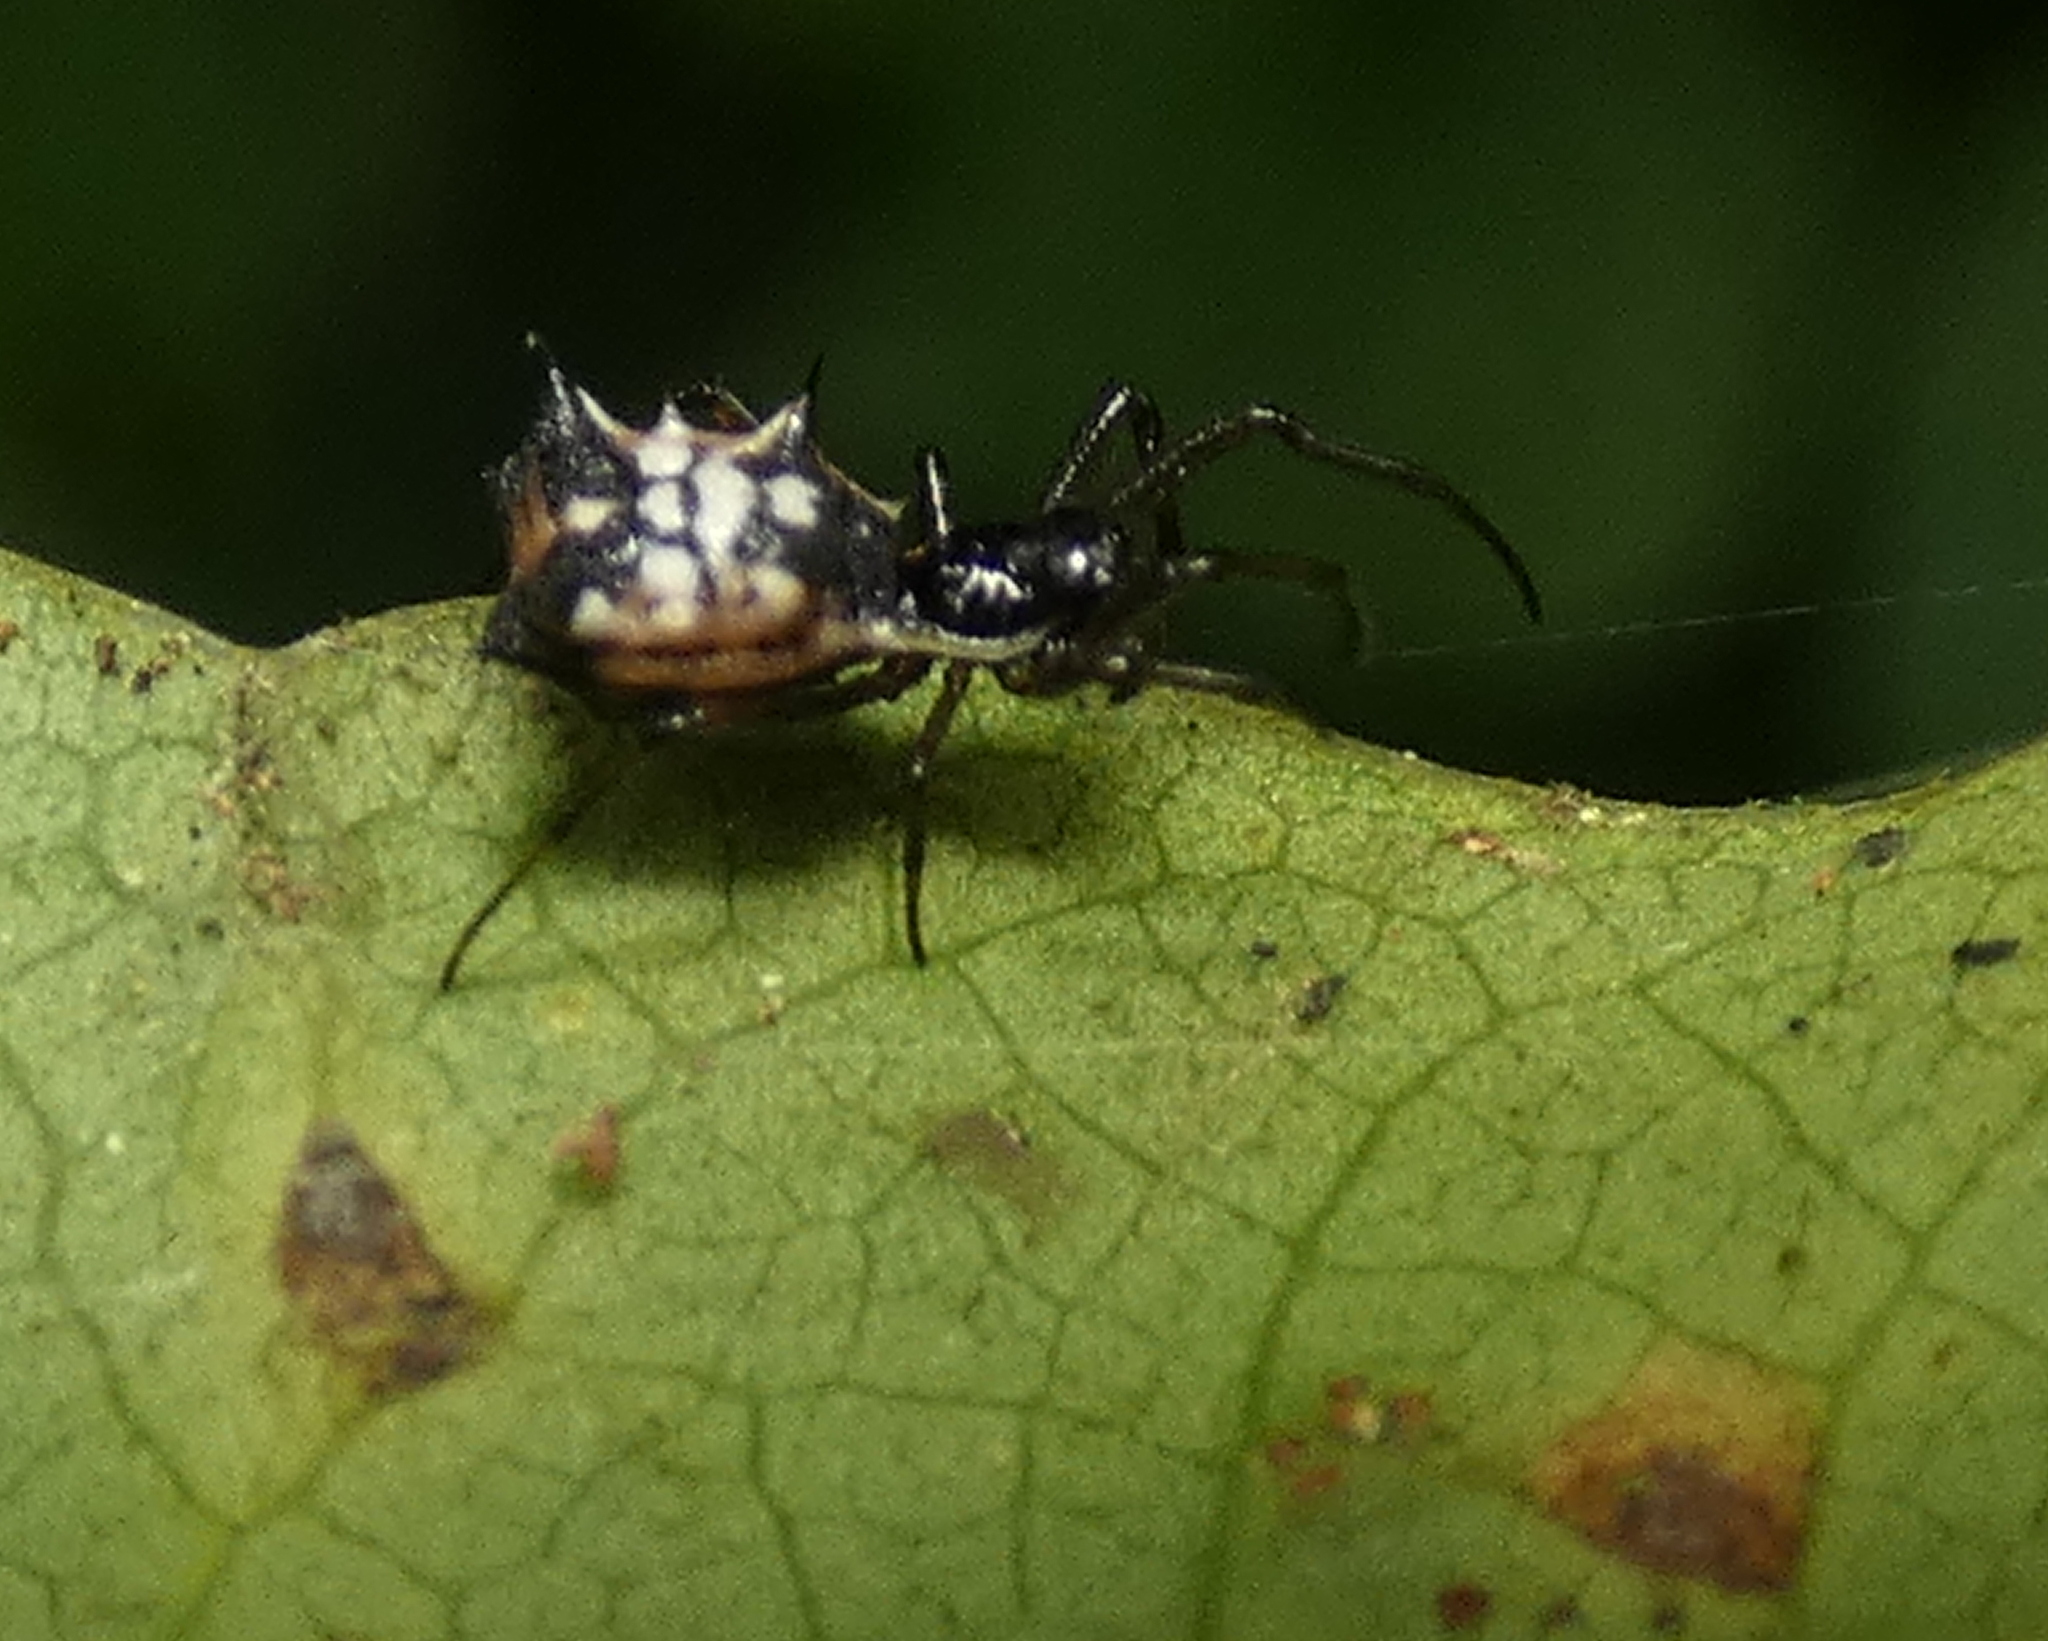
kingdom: Animalia
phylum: Arthropoda
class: Arachnida
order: Araneae
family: Araneidae
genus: Micrathena
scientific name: Micrathena picta
